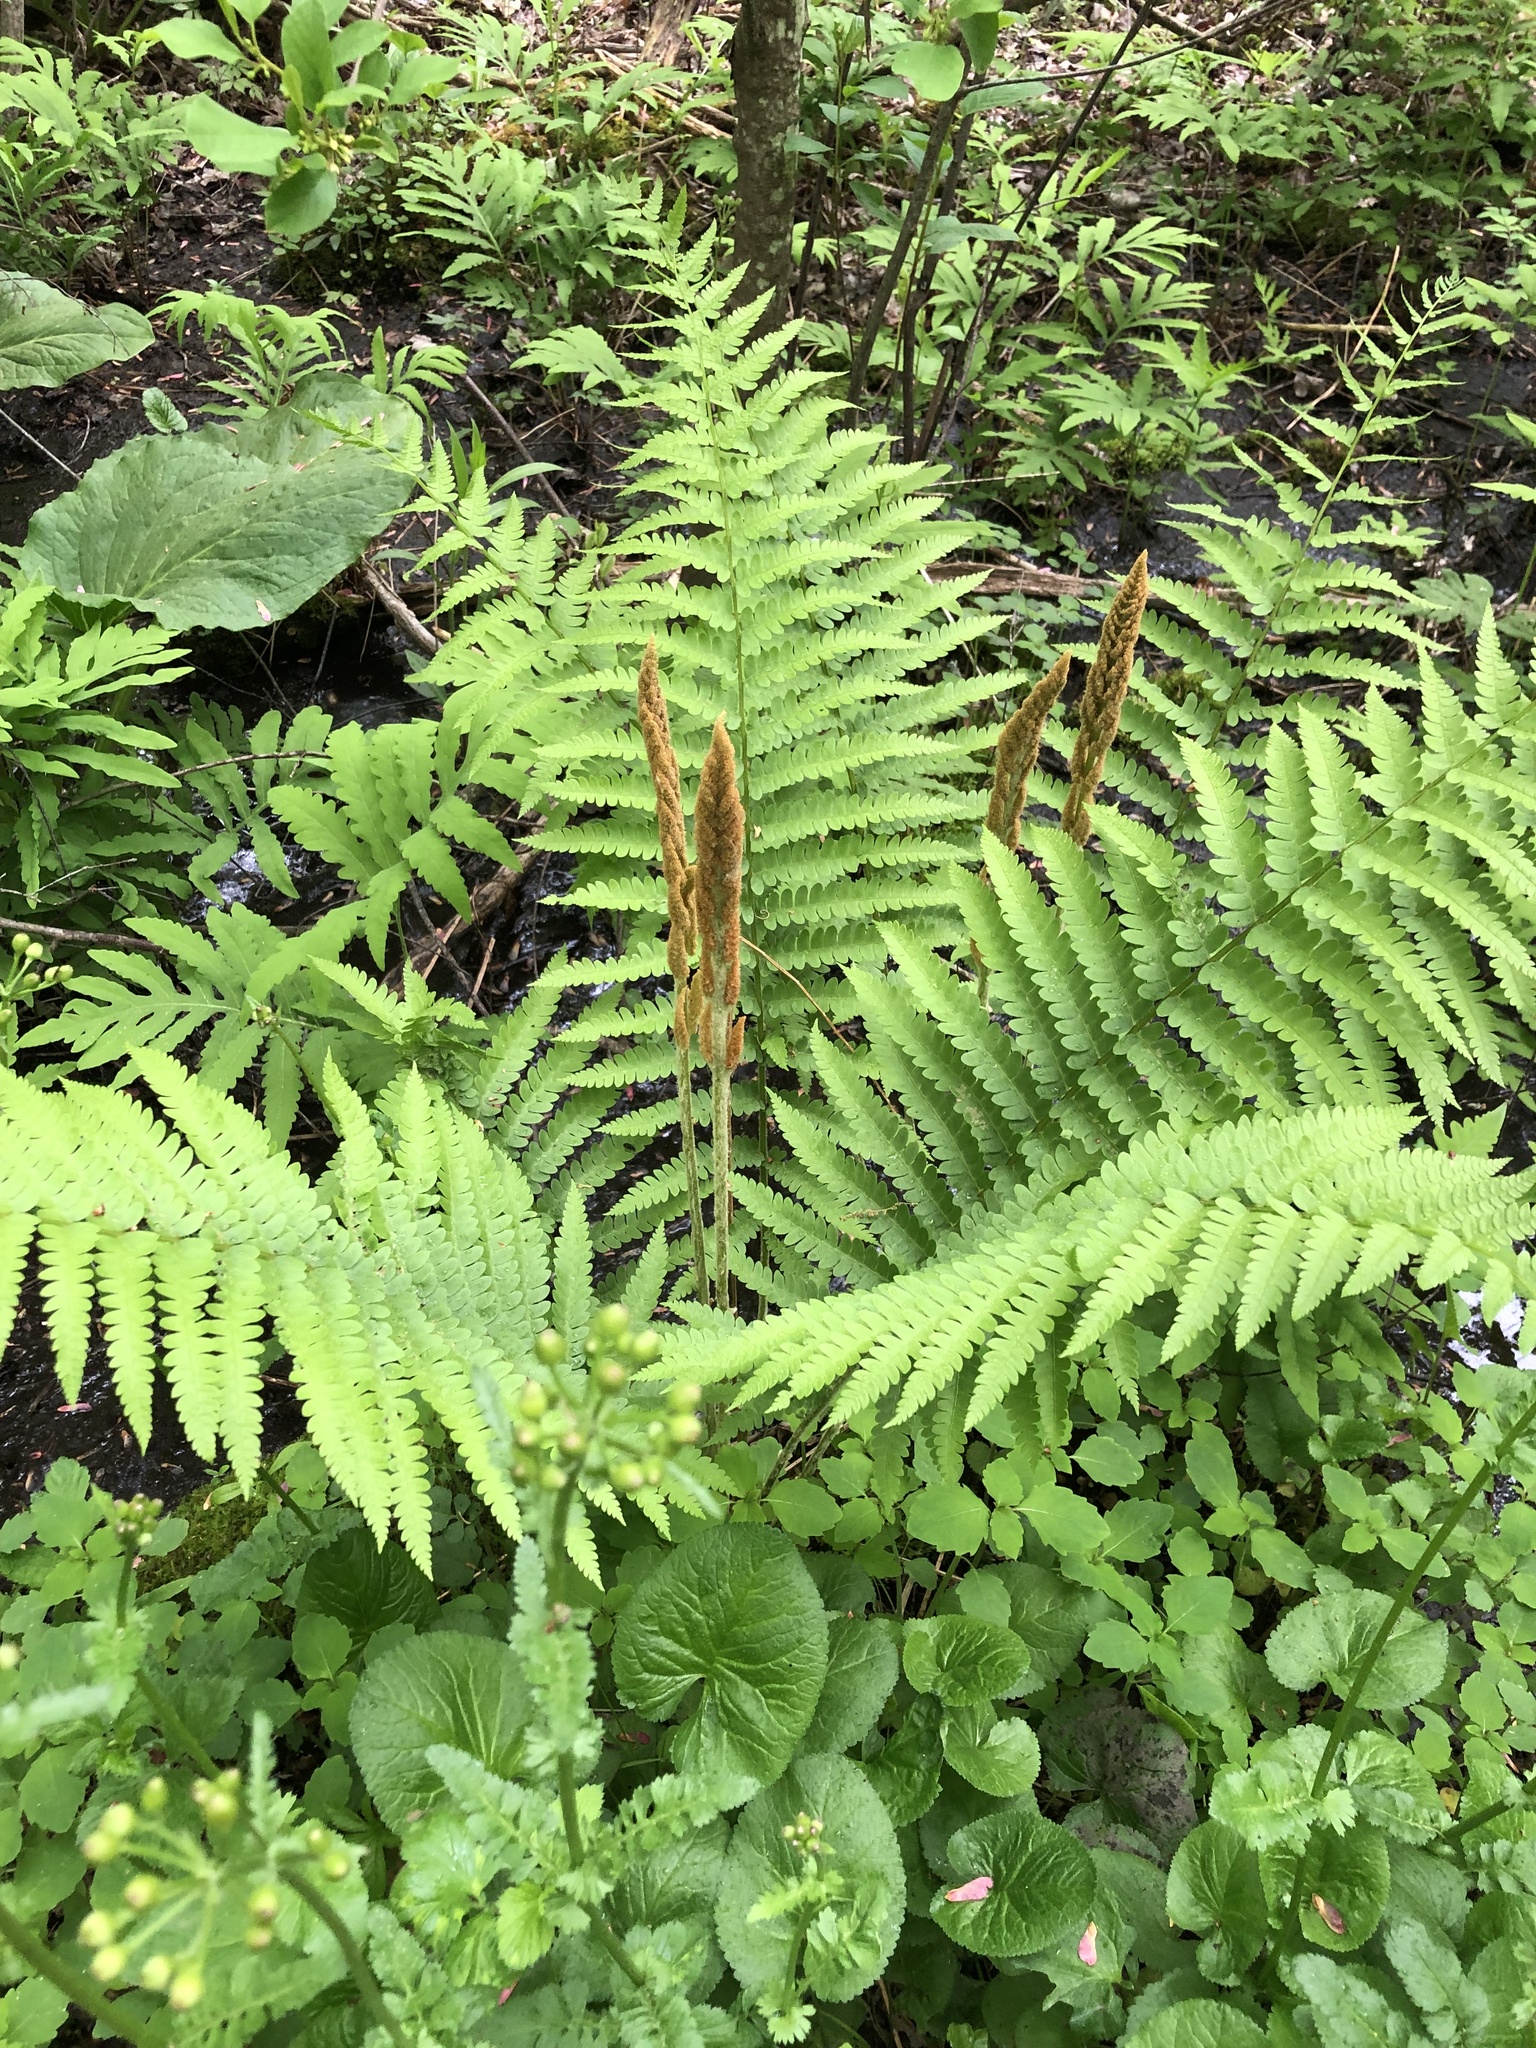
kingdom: Plantae
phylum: Tracheophyta
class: Polypodiopsida
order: Osmundales
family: Osmundaceae
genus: Osmundastrum
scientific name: Osmundastrum cinnamomeum
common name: Cinnamon fern
